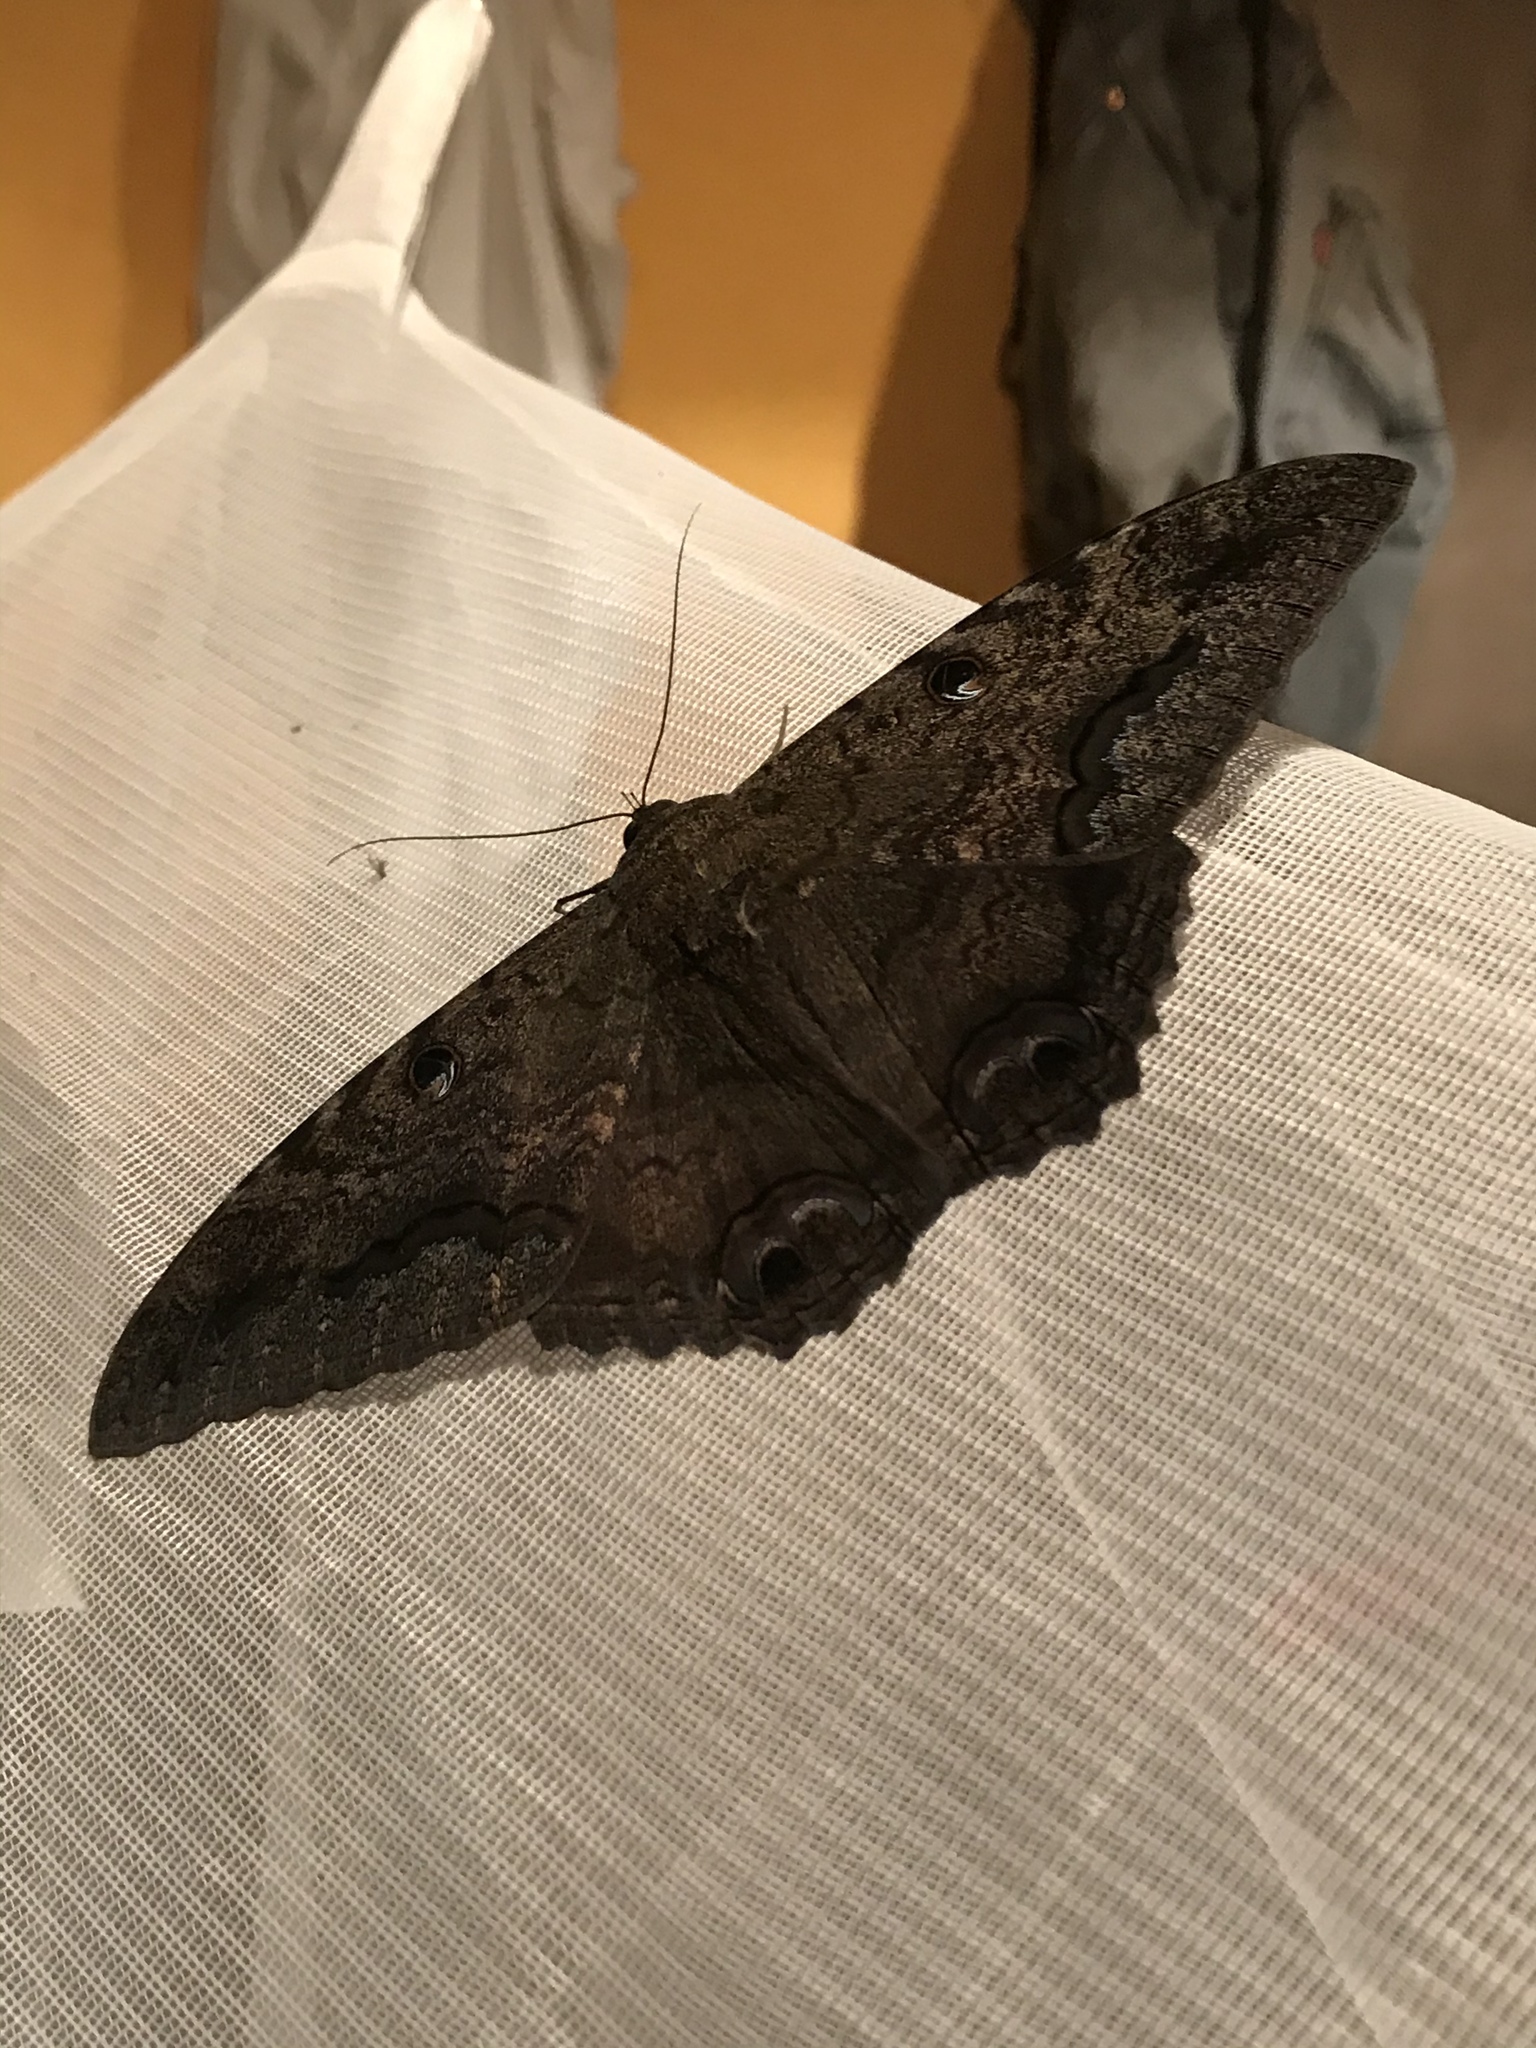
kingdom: Animalia
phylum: Arthropoda
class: Insecta
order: Lepidoptera
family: Erebidae
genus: Ascalapha
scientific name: Ascalapha odorata
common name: Black witch
